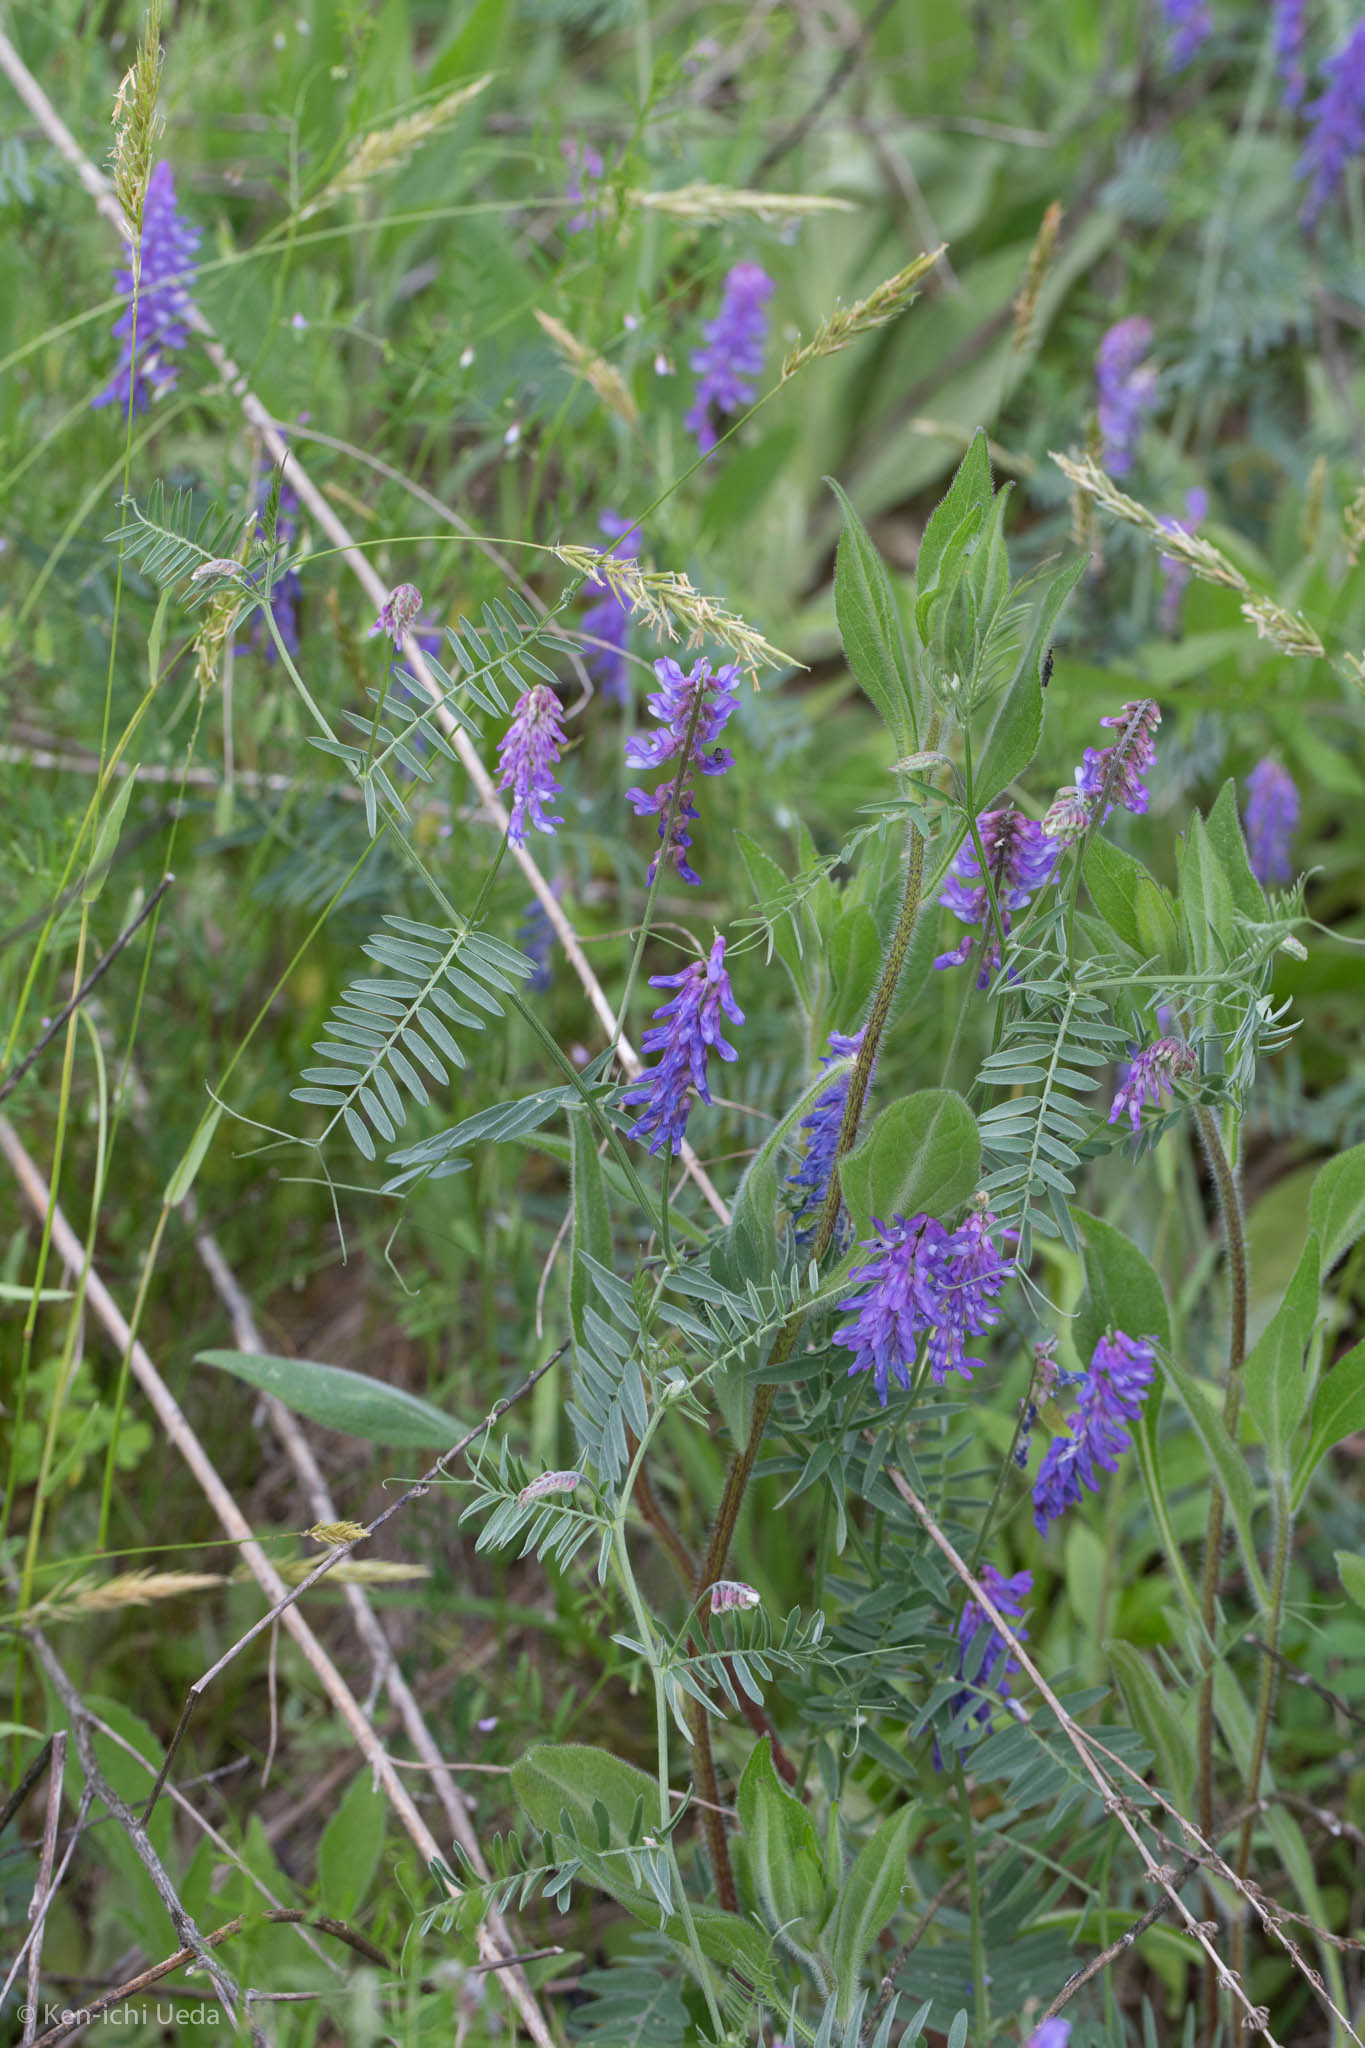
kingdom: Plantae
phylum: Tracheophyta
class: Magnoliopsida
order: Fabales
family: Fabaceae
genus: Vicia
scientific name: Vicia cracca
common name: Bird vetch
